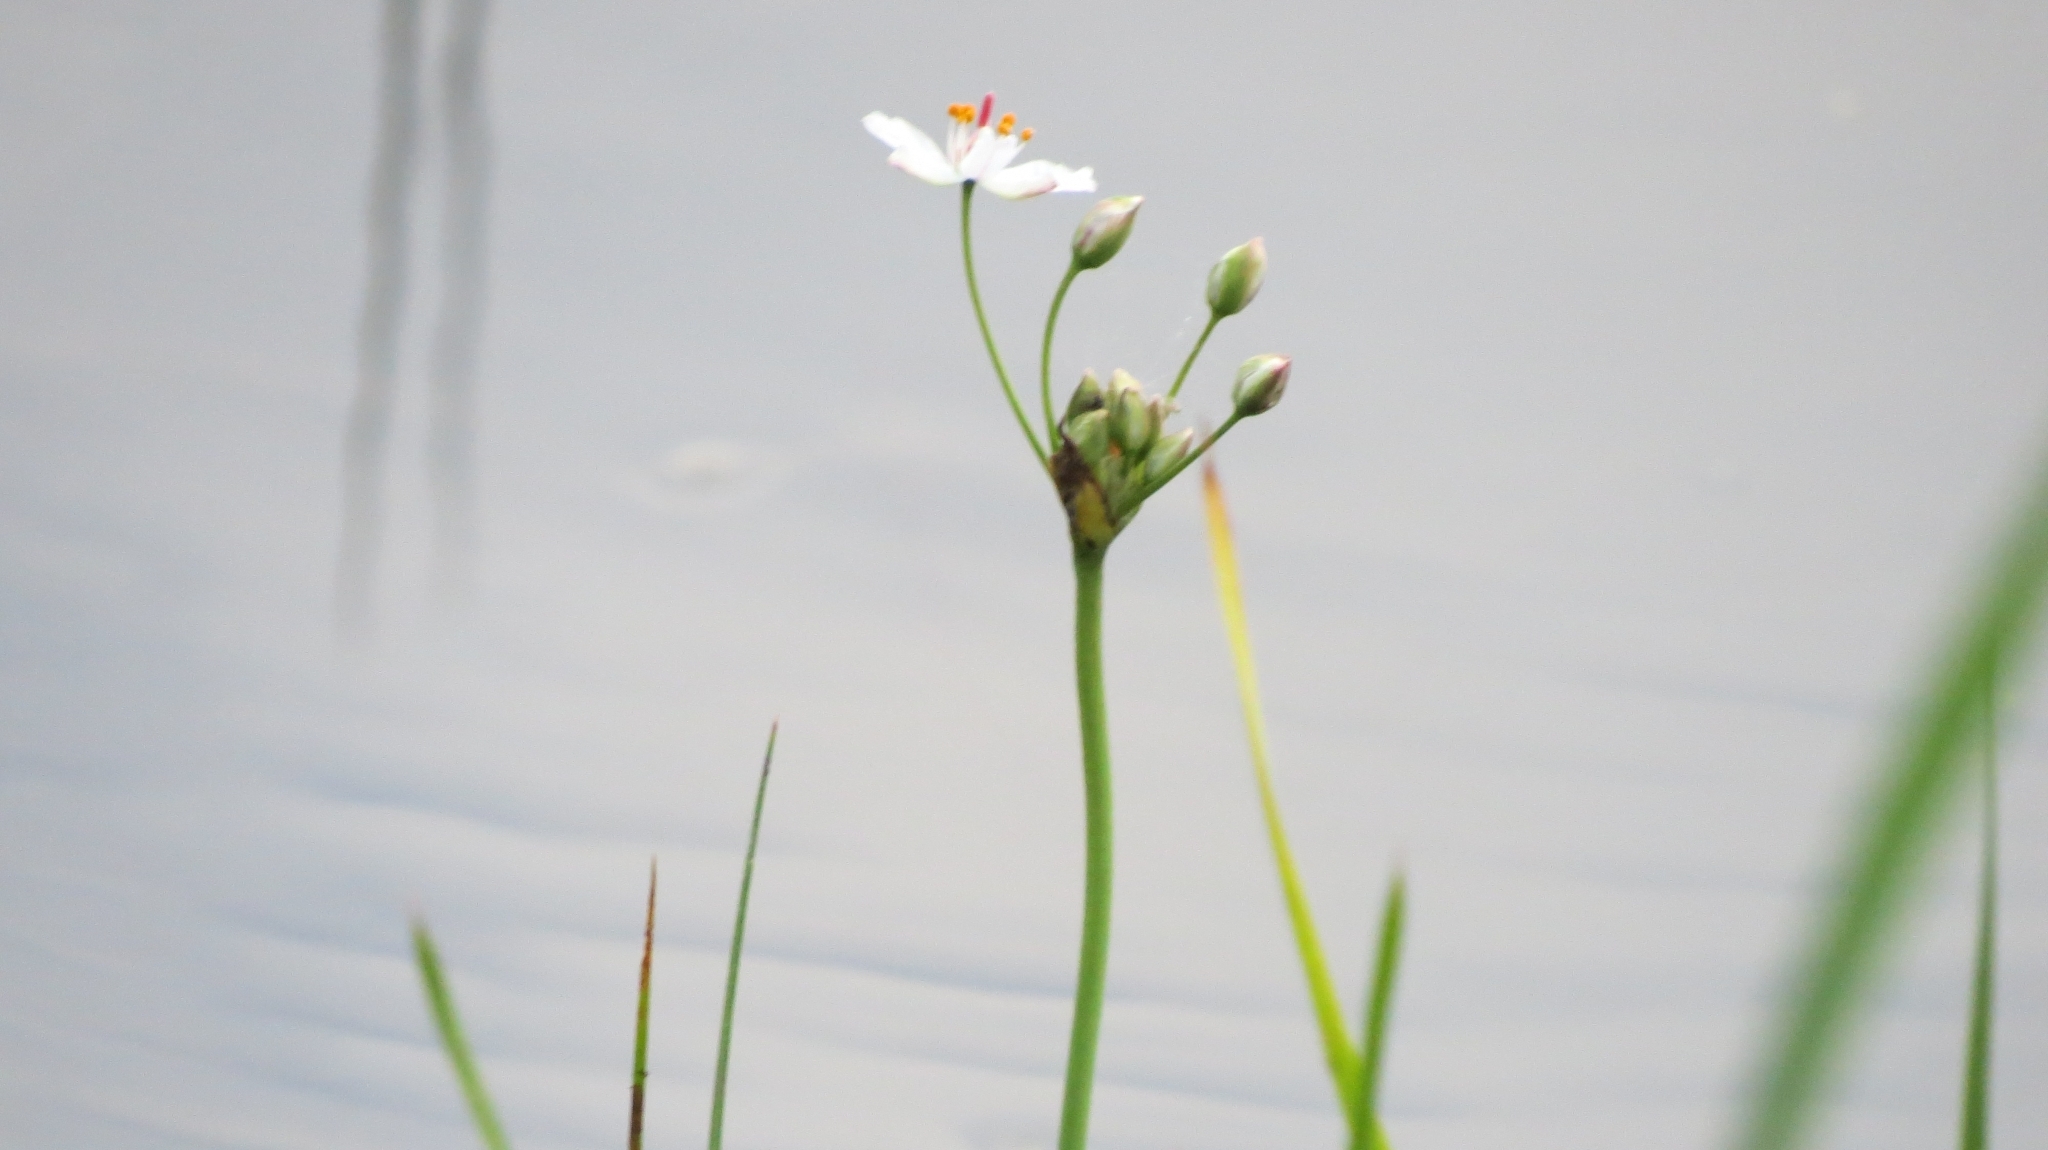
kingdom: Plantae
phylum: Tracheophyta
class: Liliopsida
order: Alismatales
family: Butomaceae
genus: Butomus
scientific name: Butomus umbellatus
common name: Flowering-rush
